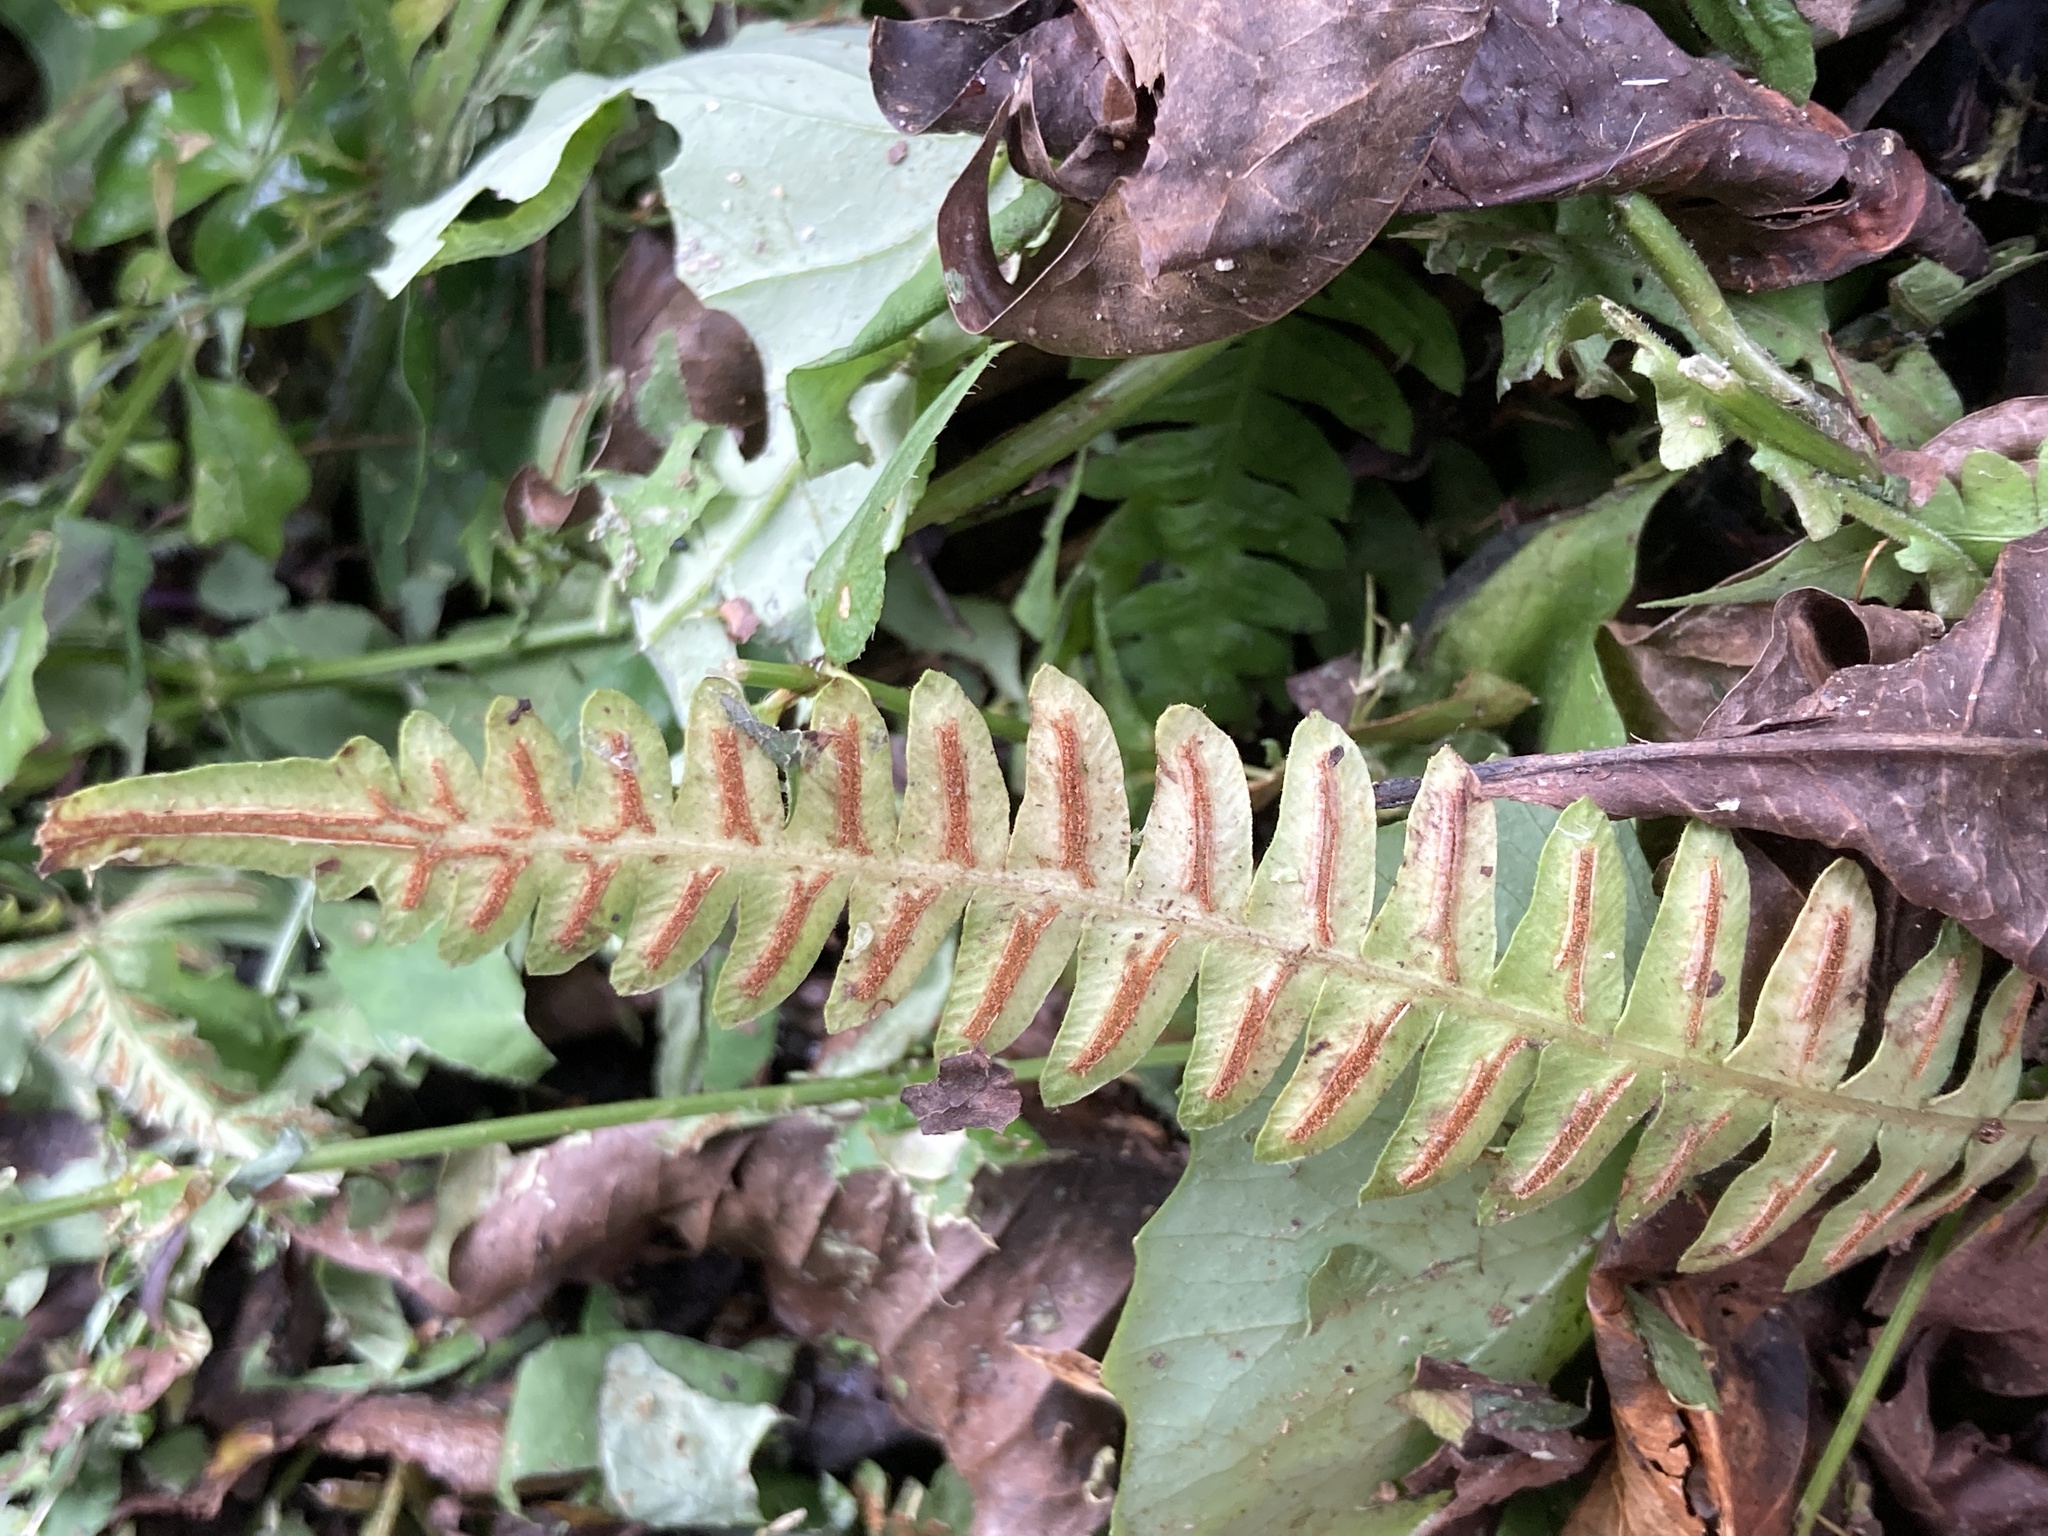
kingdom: Plantae
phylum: Tracheophyta
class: Polypodiopsida
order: Polypodiales
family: Blechnaceae
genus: Blechnum
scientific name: Blechnum asplenioides
